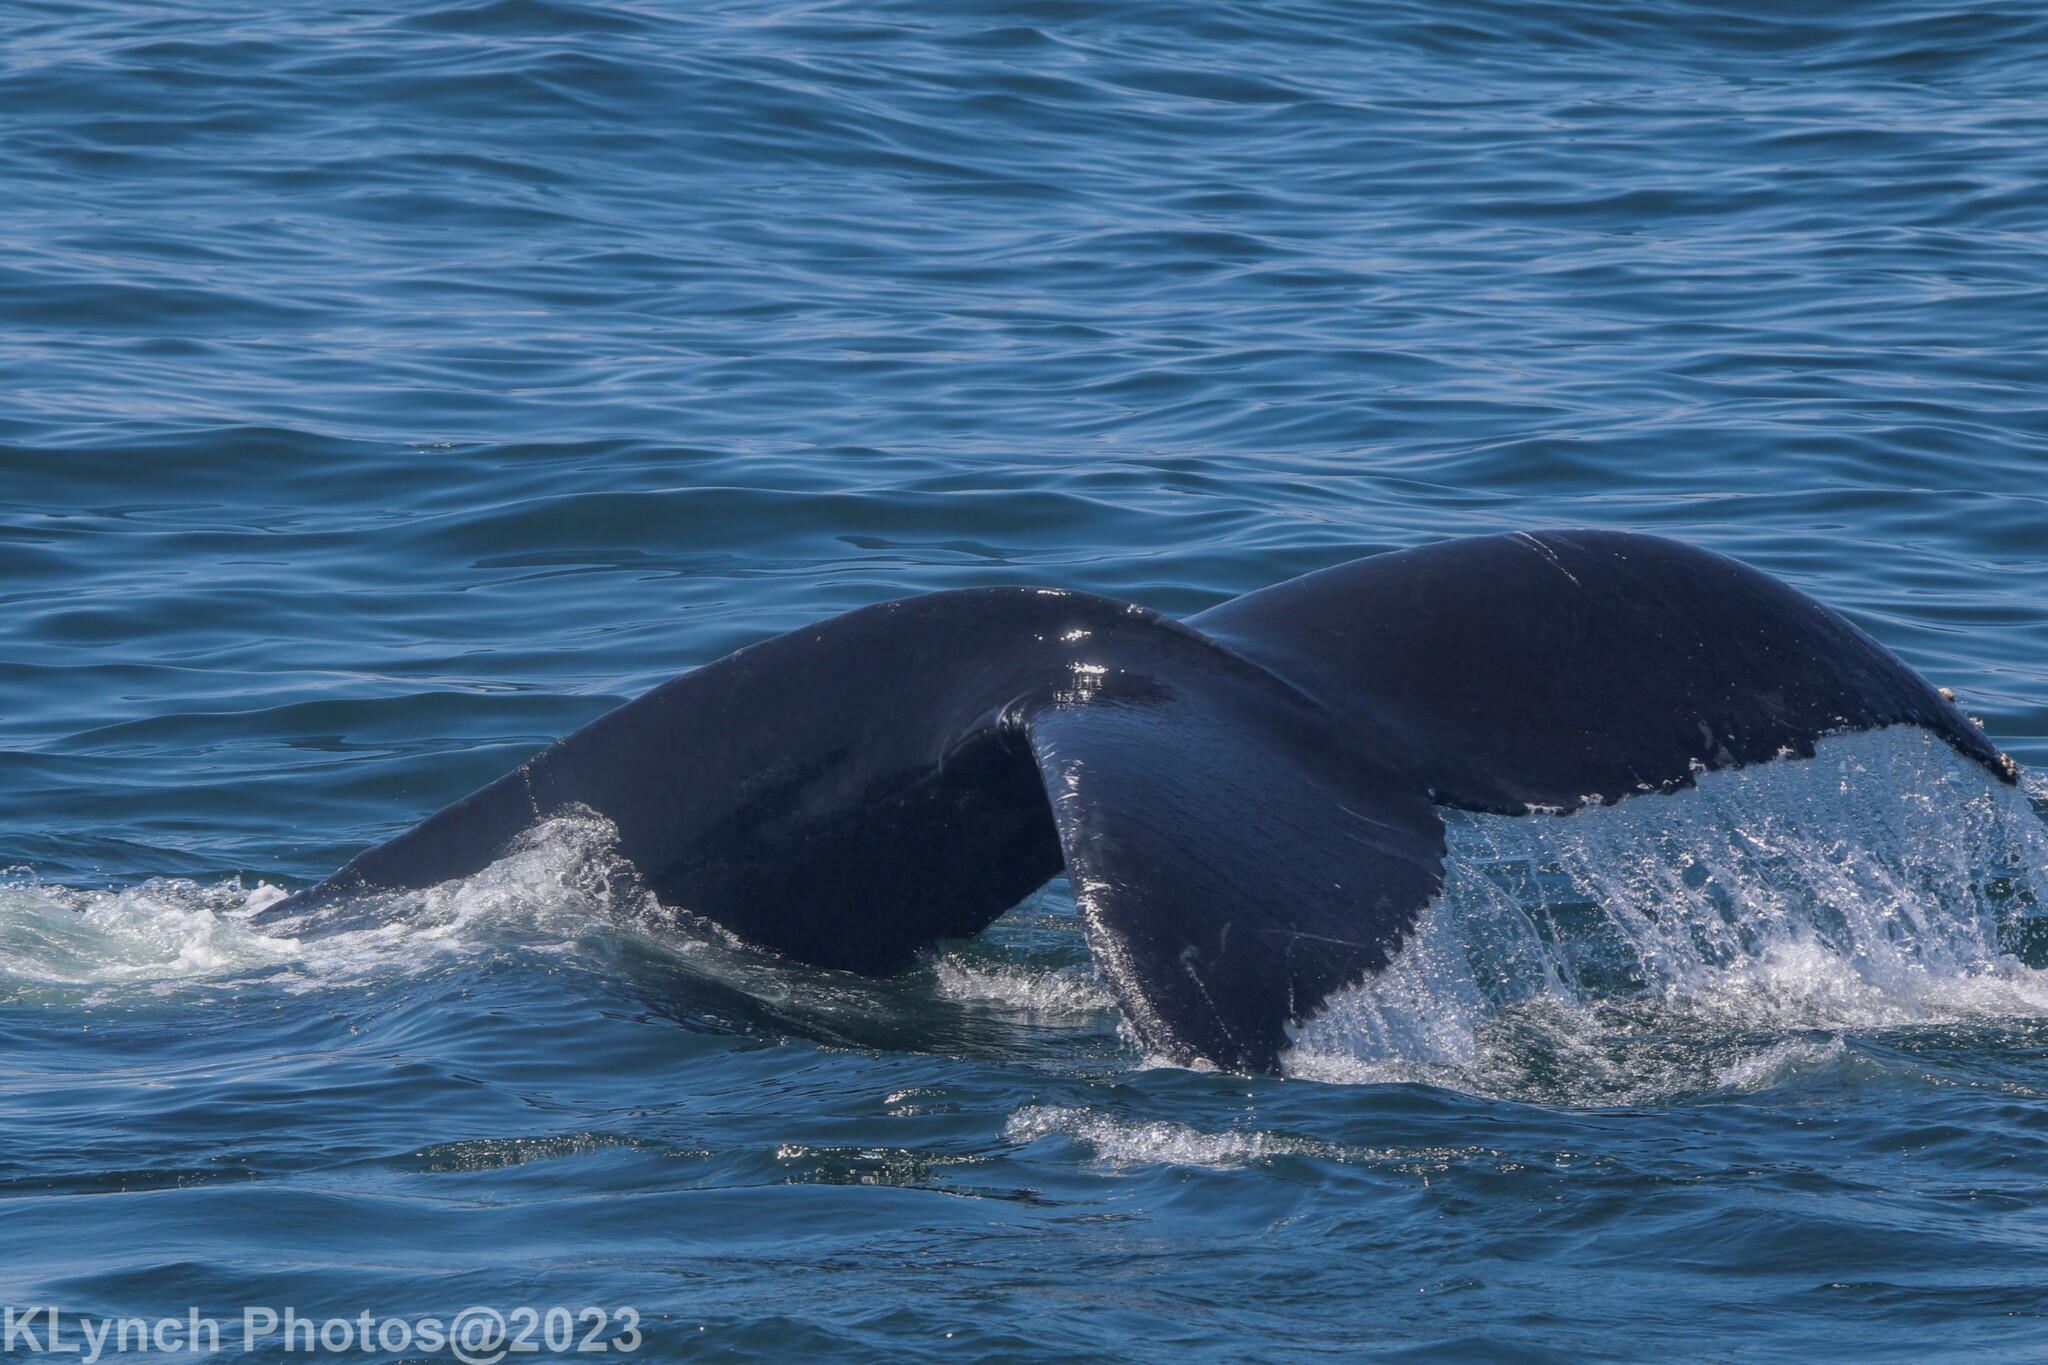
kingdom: Animalia
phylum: Chordata
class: Mammalia
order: Cetacea
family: Balaenopteridae
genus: Megaptera
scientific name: Megaptera novaeangliae
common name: Humpback whale
